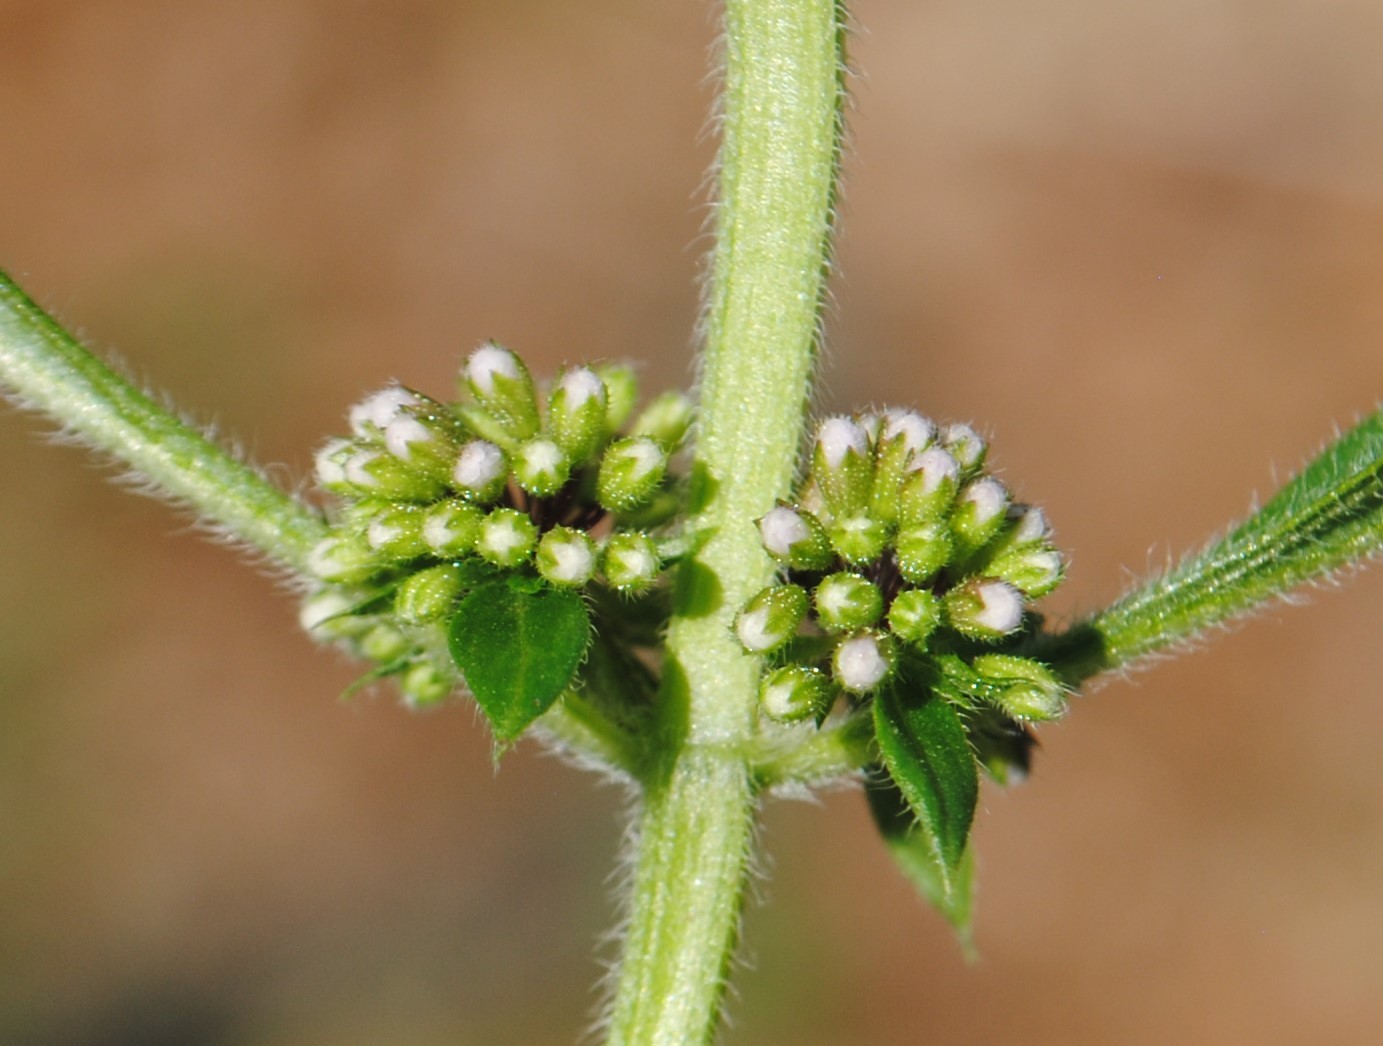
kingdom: Plantae
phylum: Tracheophyta
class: Magnoliopsida
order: Lamiales
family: Lamiaceae
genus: Mentha
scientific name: Mentha arvensis
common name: Corn mint
